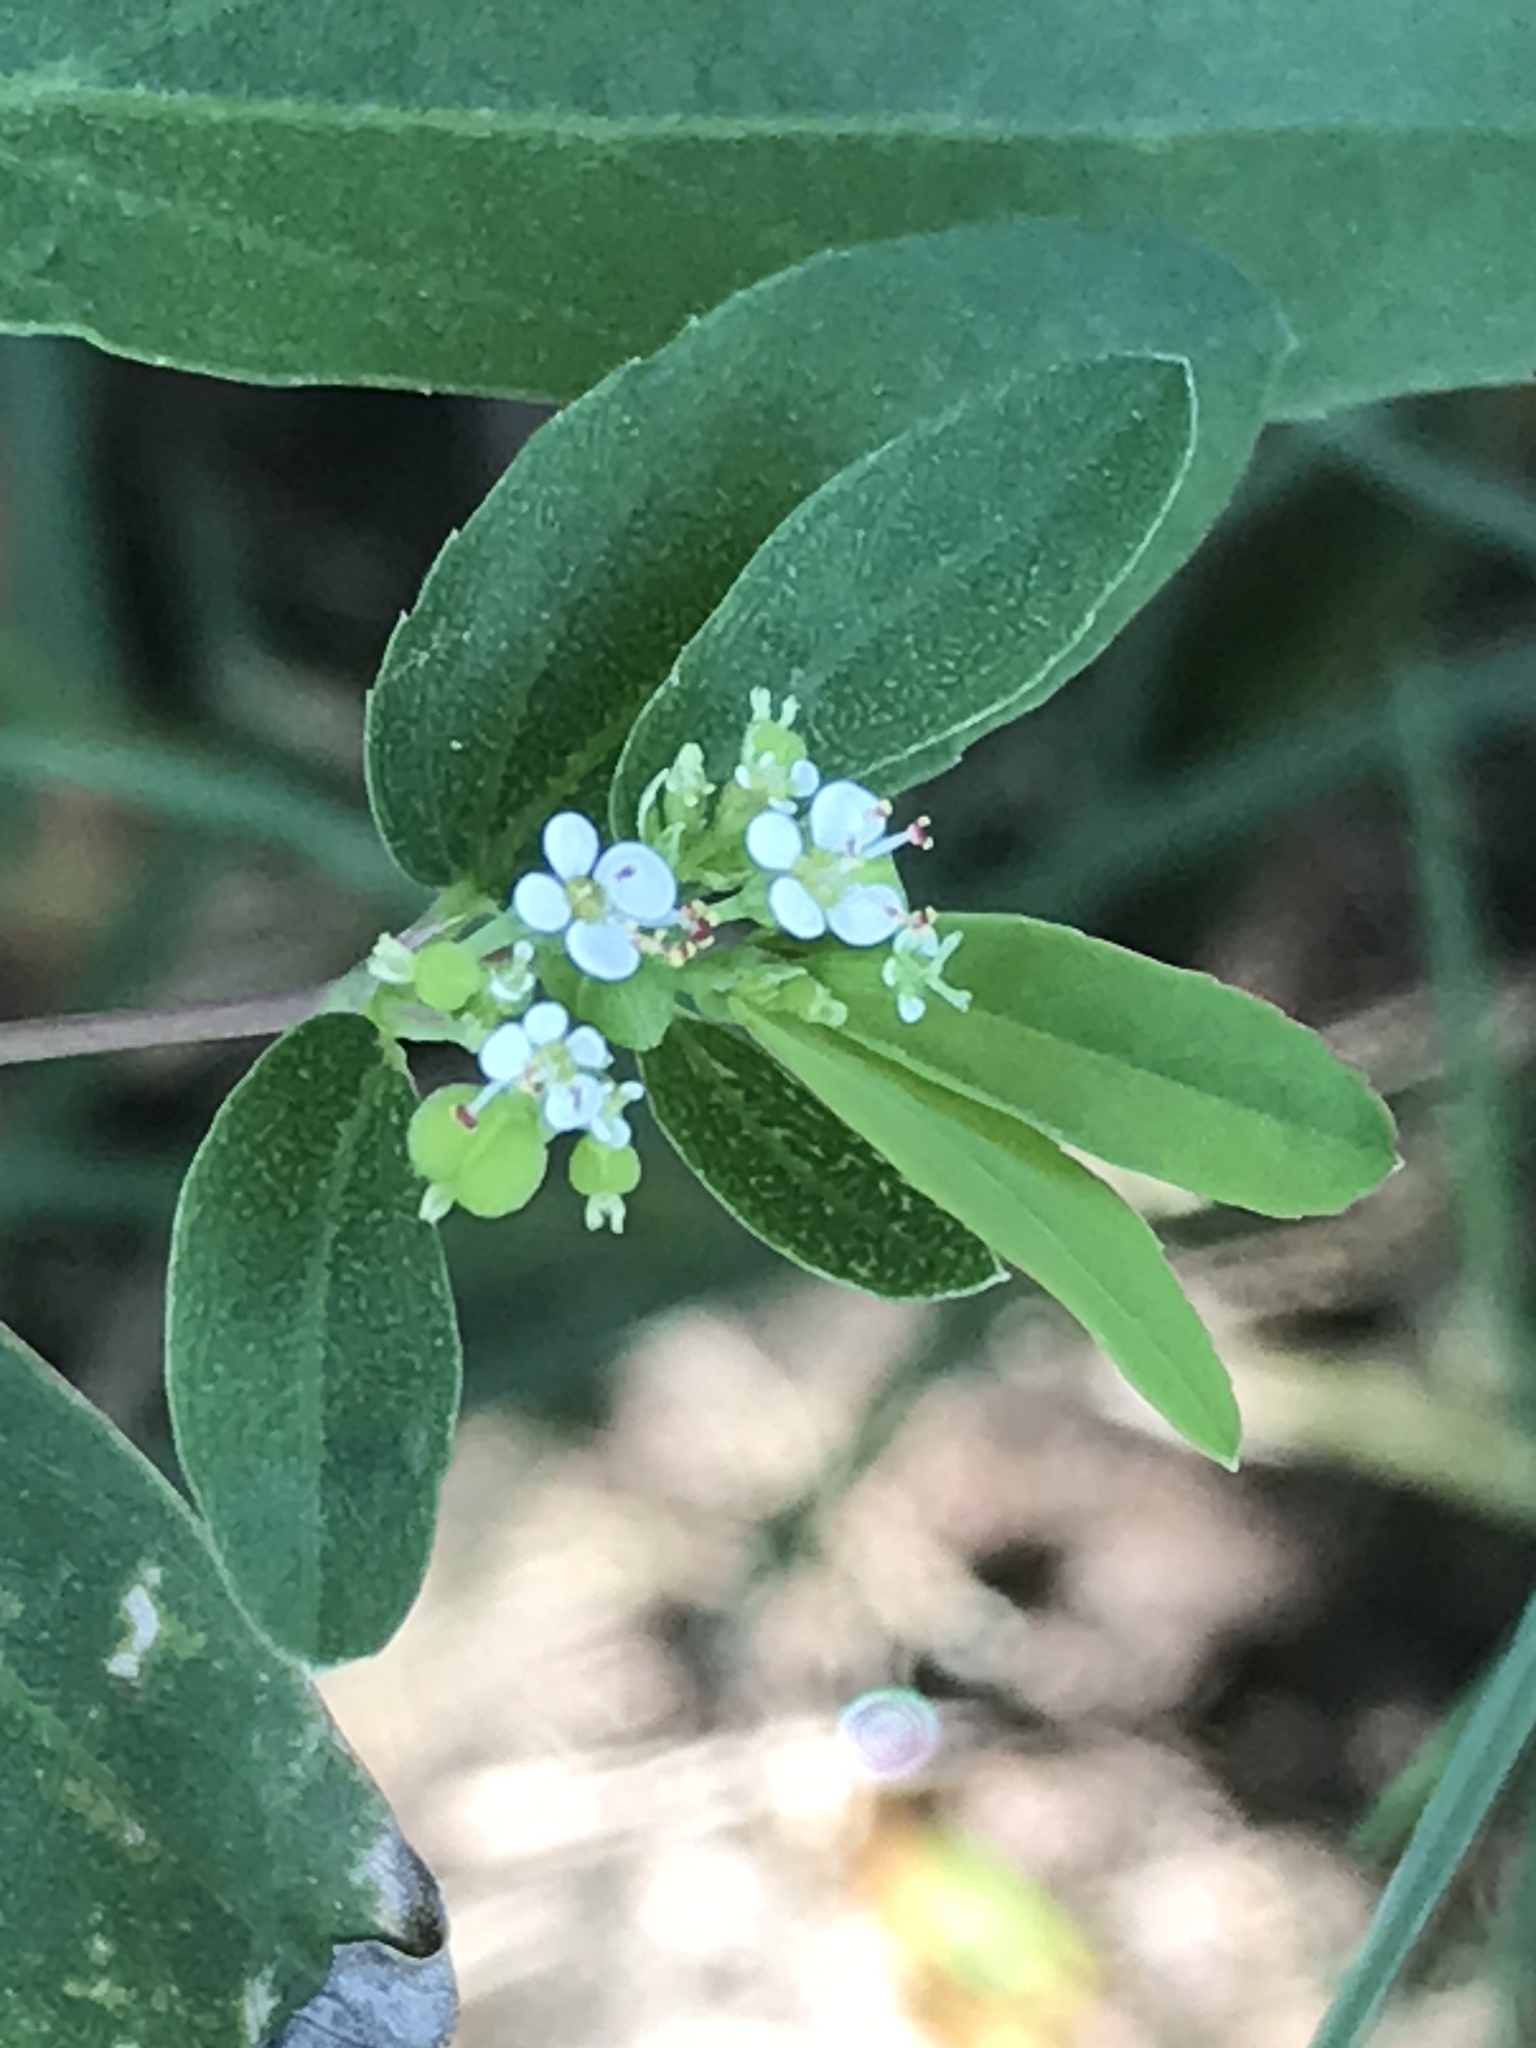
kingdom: Plantae
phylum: Tracheophyta
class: Magnoliopsida
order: Malpighiales
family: Euphorbiaceae
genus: Euphorbia
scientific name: Euphorbia hypericifolia
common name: Graceful sandmat
